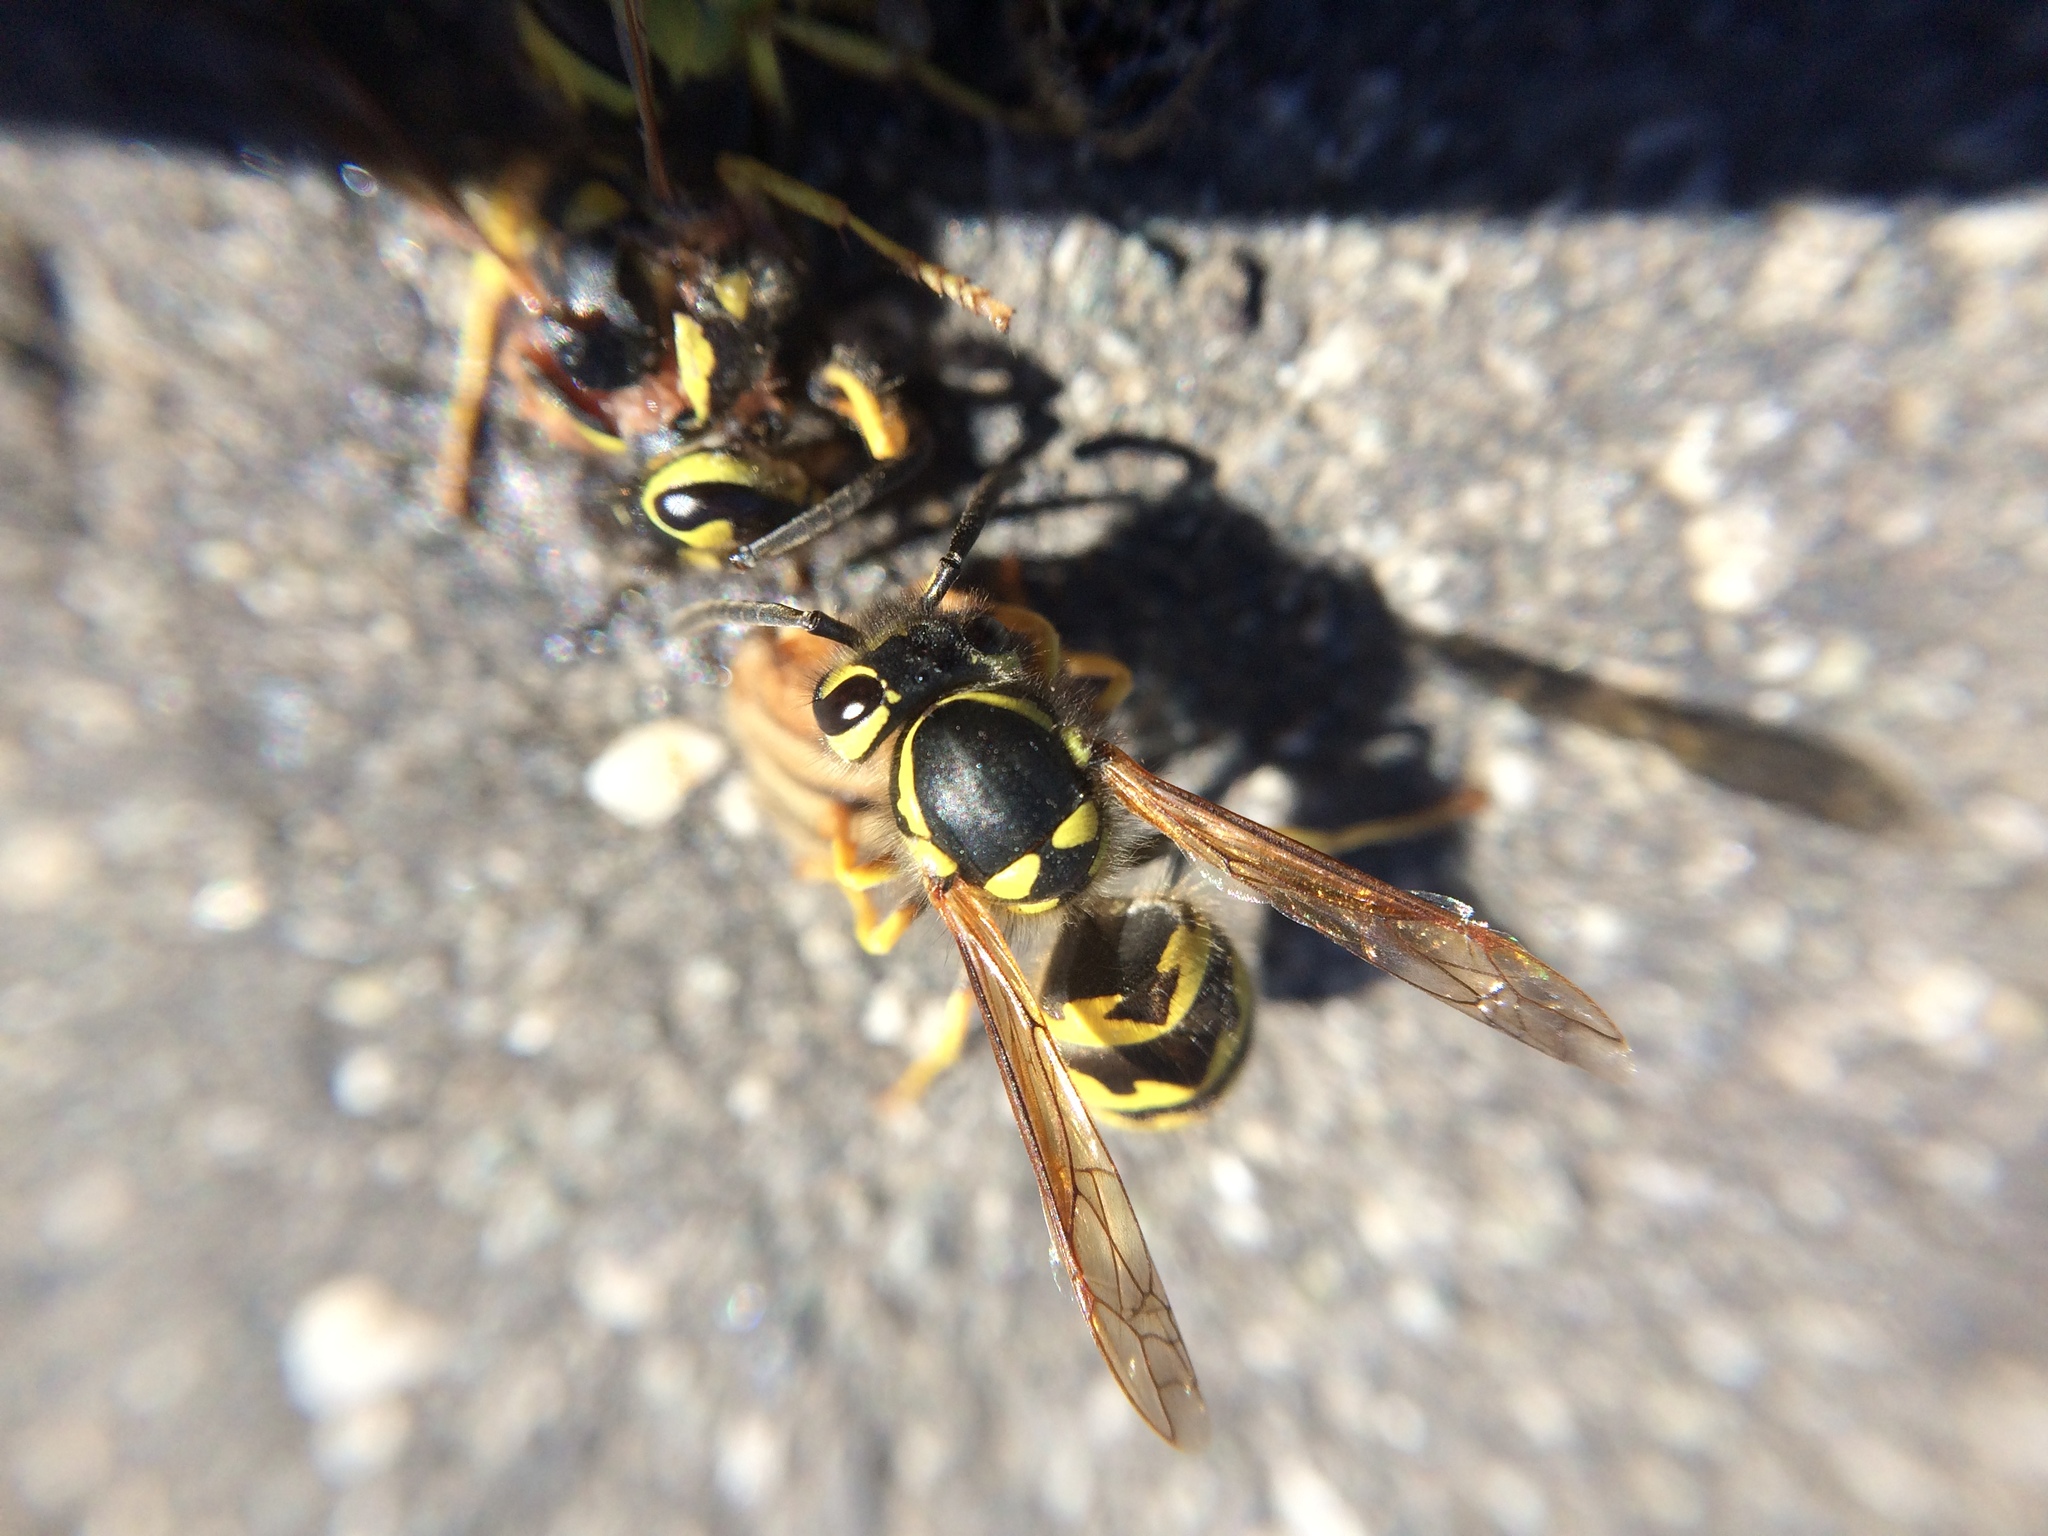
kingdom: Animalia
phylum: Arthropoda
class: Insecta
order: Hymenoptera
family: Vespidae
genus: Vespula
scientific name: Vespula pensylvanica
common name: Western yellowjacket
